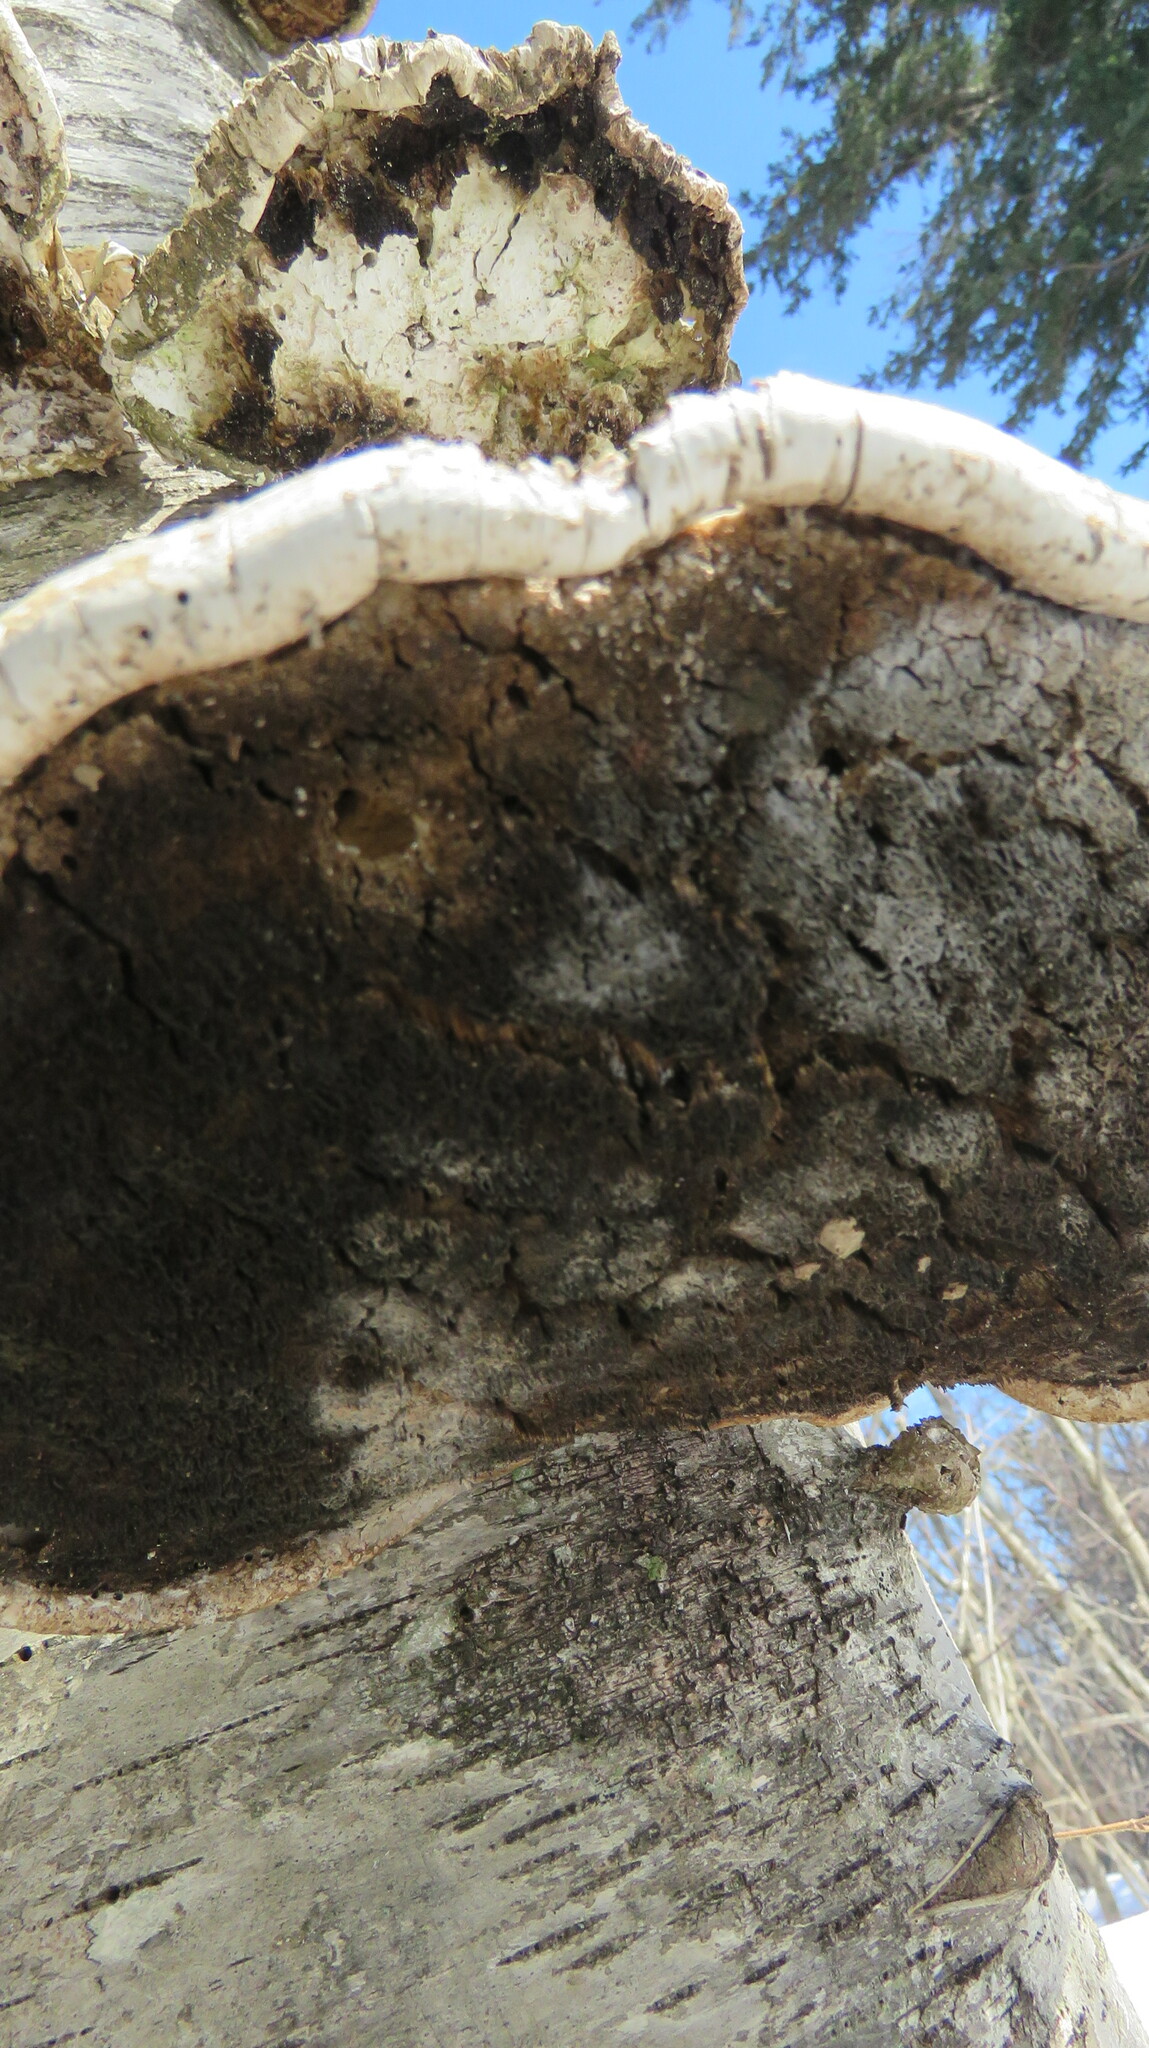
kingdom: Fungi
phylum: Basidiomycota
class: Agaricomycetes
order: Polyporales
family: Fomitopsidaceae
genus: Fomitopsis
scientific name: Fomitopsis betulina
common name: Birch polypore
